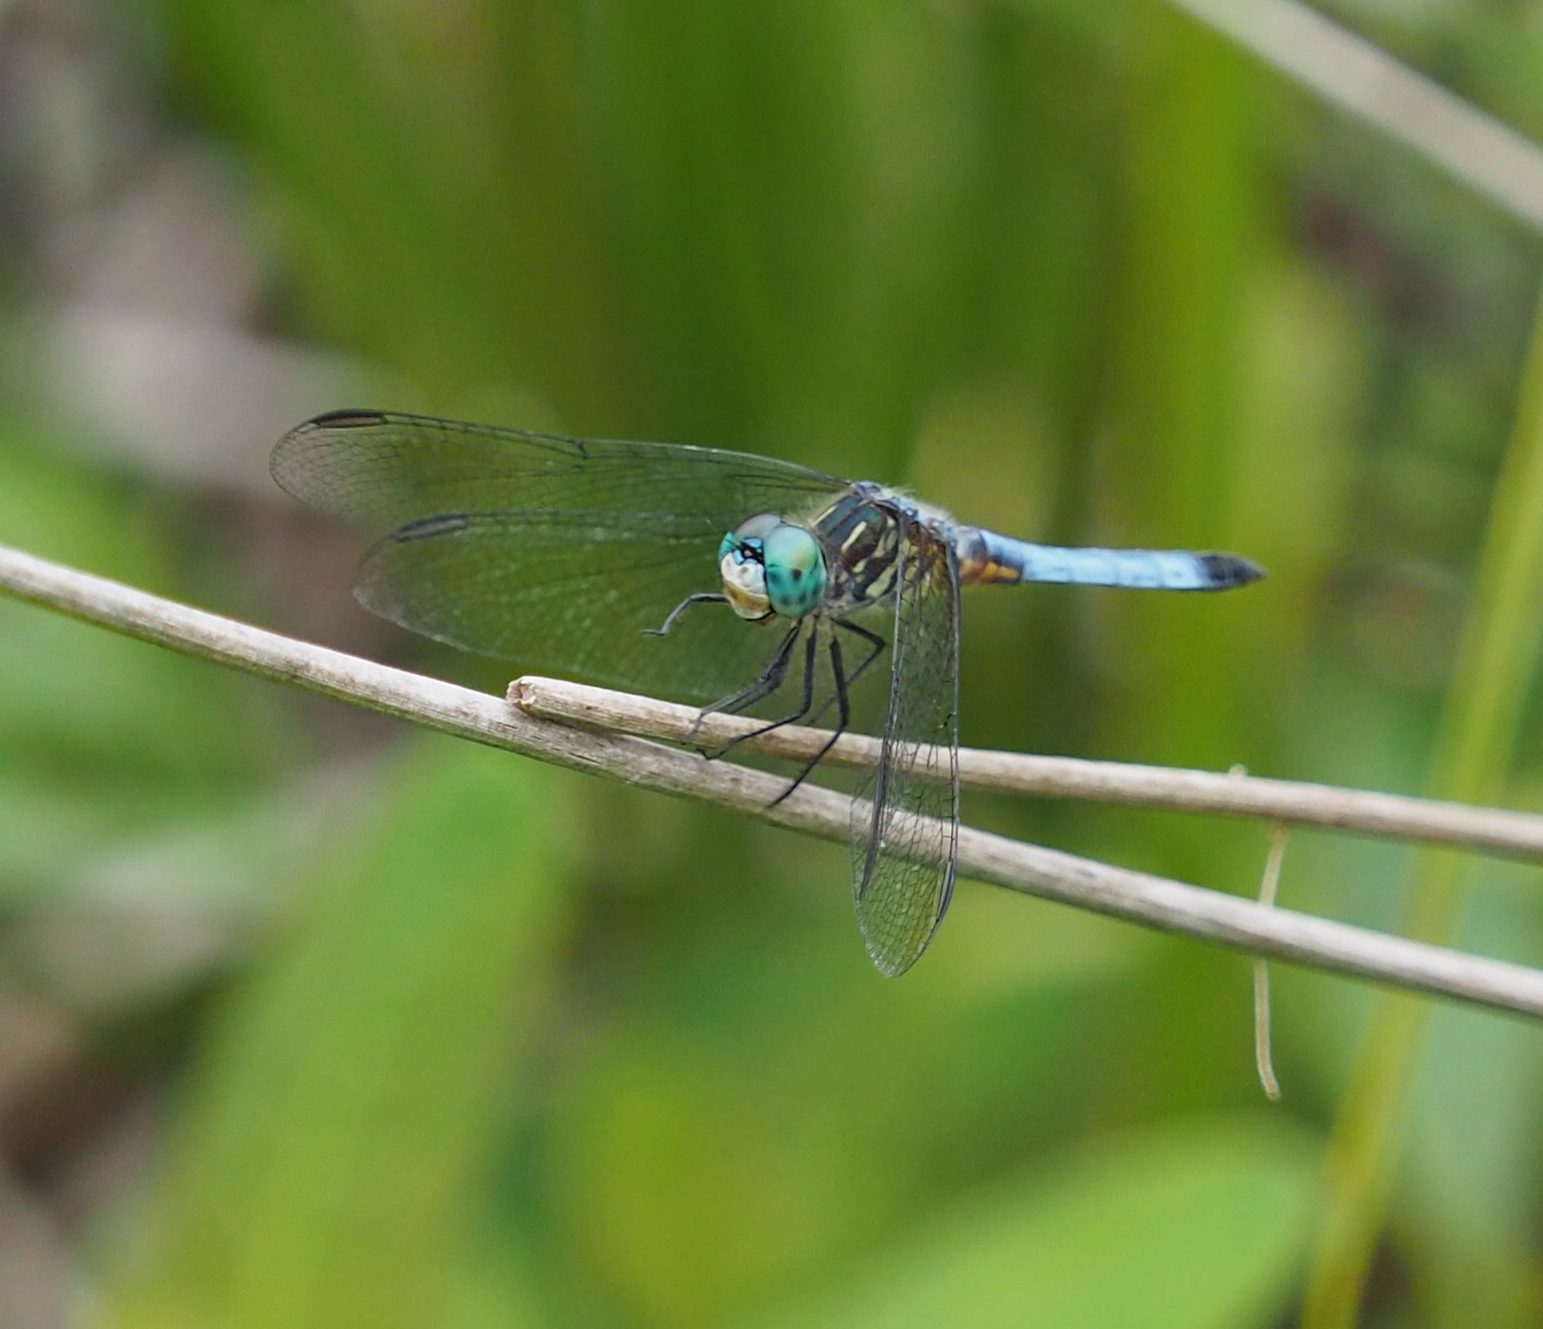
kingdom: Animalia
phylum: Arthropoda
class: Insecta
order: Odonata
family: Libellulidae
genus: Pachydiplax
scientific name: Pachydiplax longipennis
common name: Blue dasher
